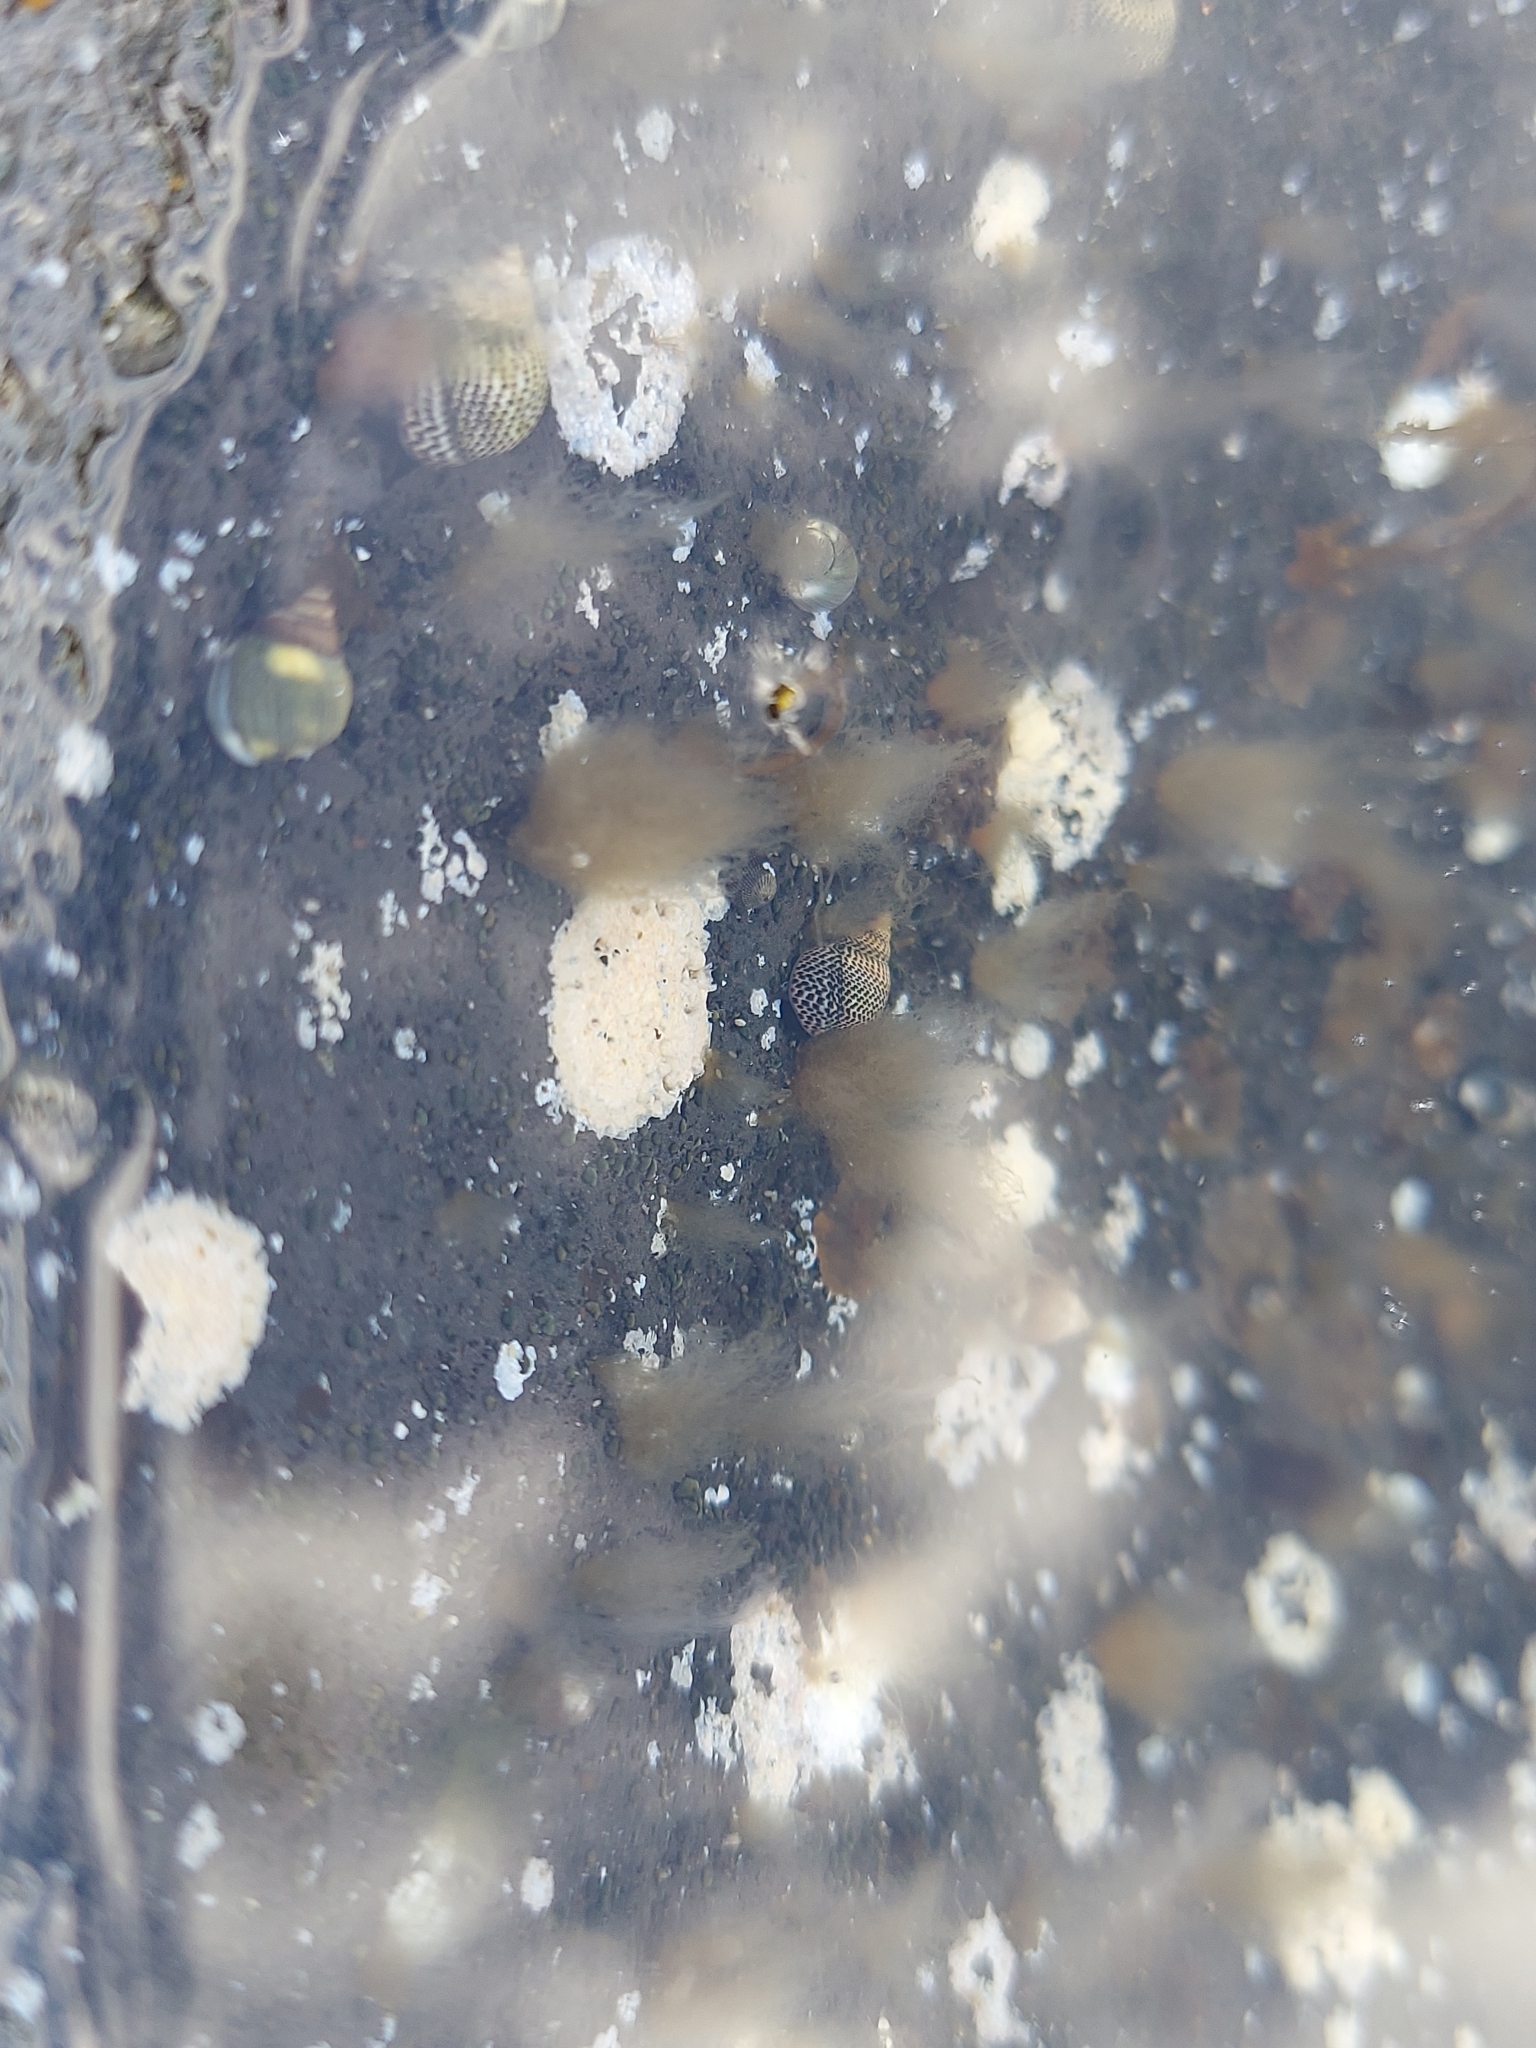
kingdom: Animalia
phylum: Mollusca
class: Gastropoda
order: Littorinimorpha
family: Littorinidae
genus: Littoraria
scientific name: Littoraria pintado
